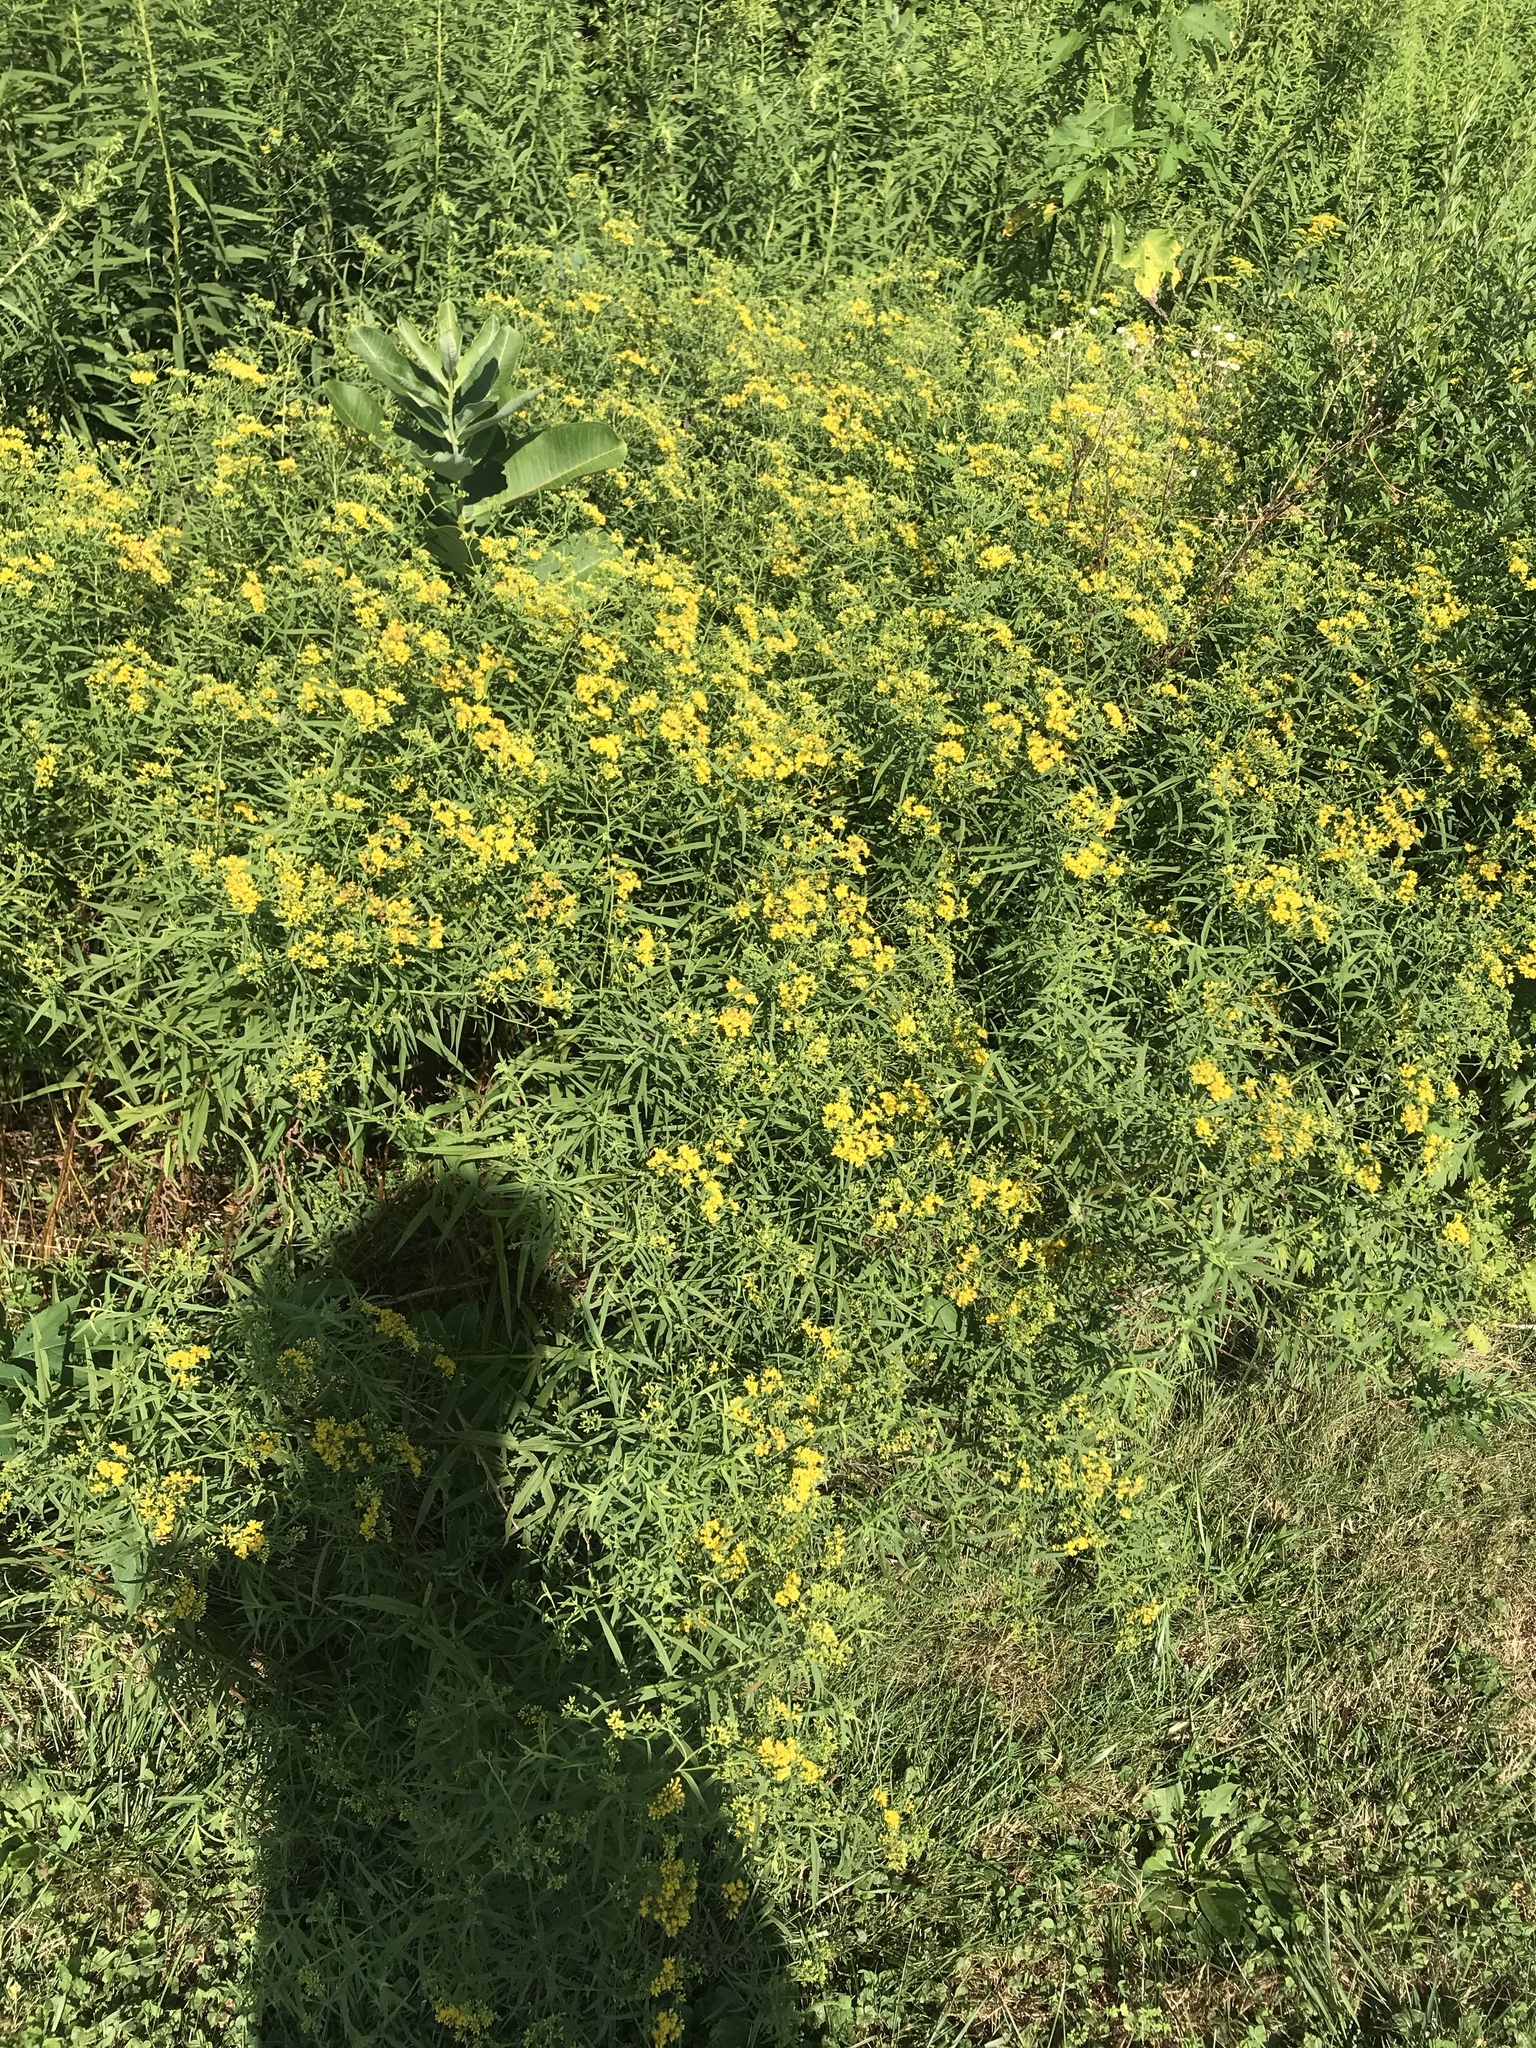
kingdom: Plantae
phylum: Tracheophyta
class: Magnoliopsida
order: Asterales
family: Asteraceae
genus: Euthamia
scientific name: Euthamia graminifolia
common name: Common goldentop
